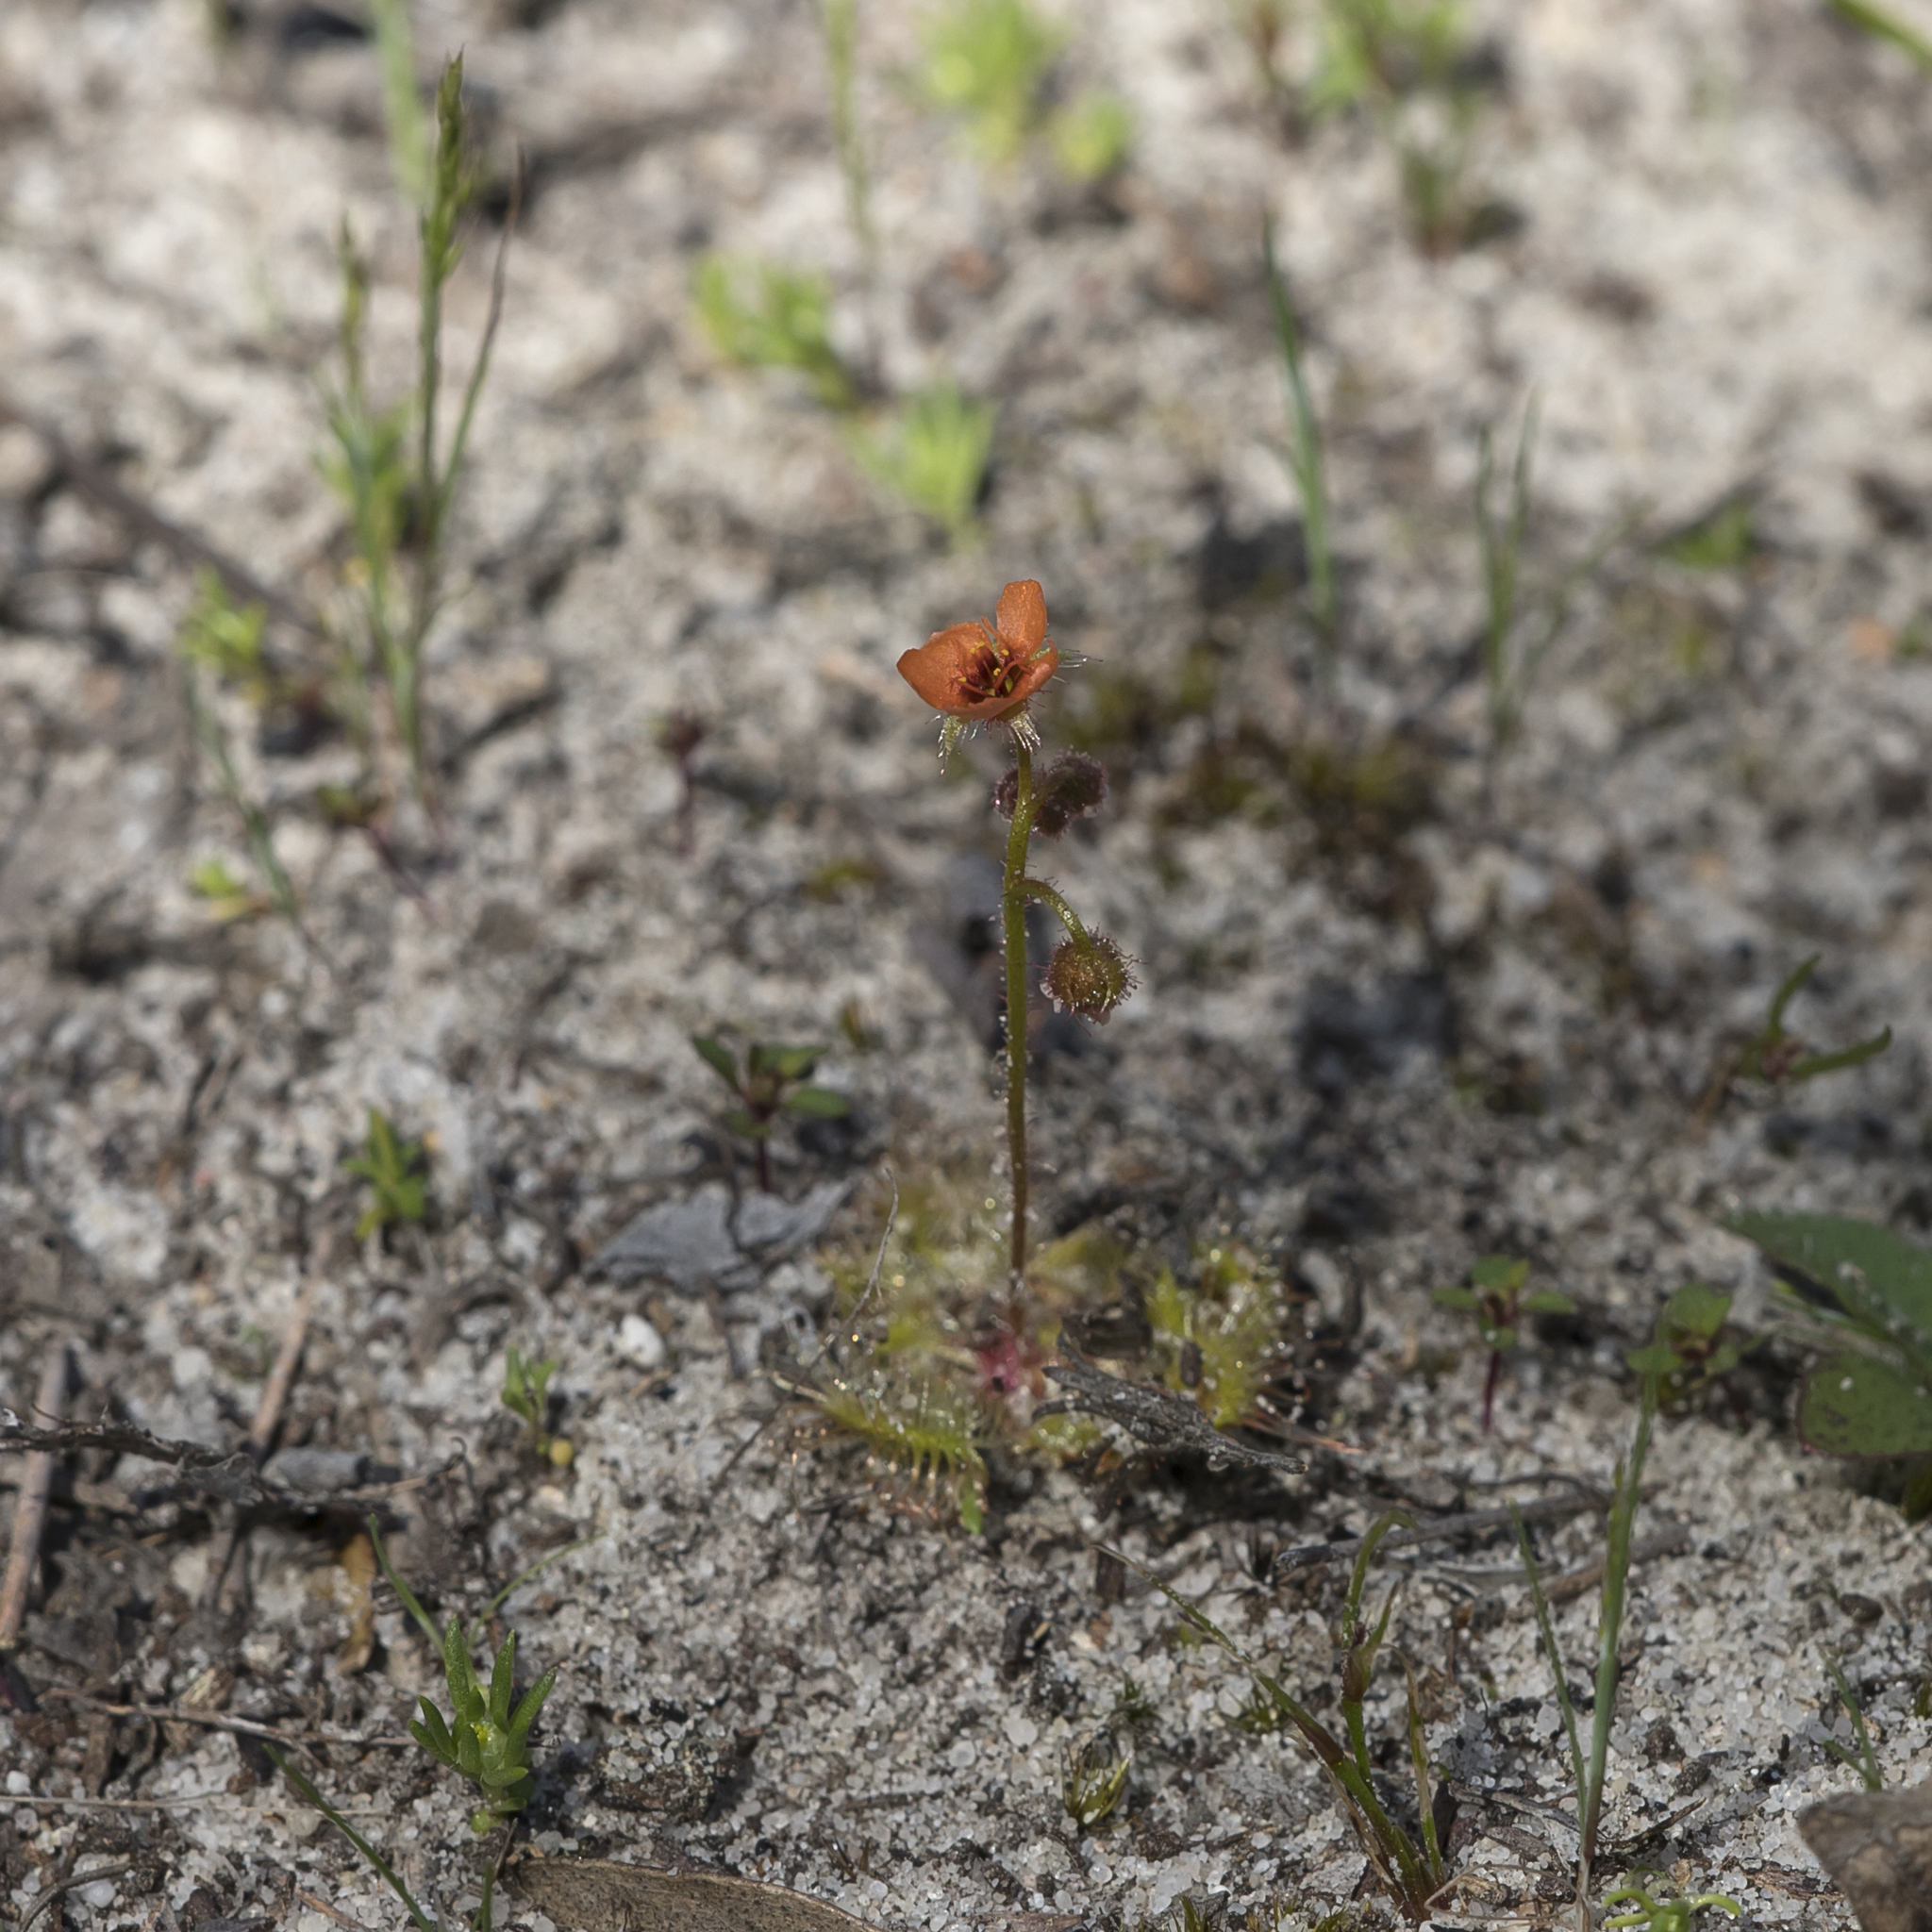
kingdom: Plantae
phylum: Tracheophyta
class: Magnoliopsida
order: Caryophyllales
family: Droseraceae
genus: Drosera
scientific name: Drosera glanduligera
